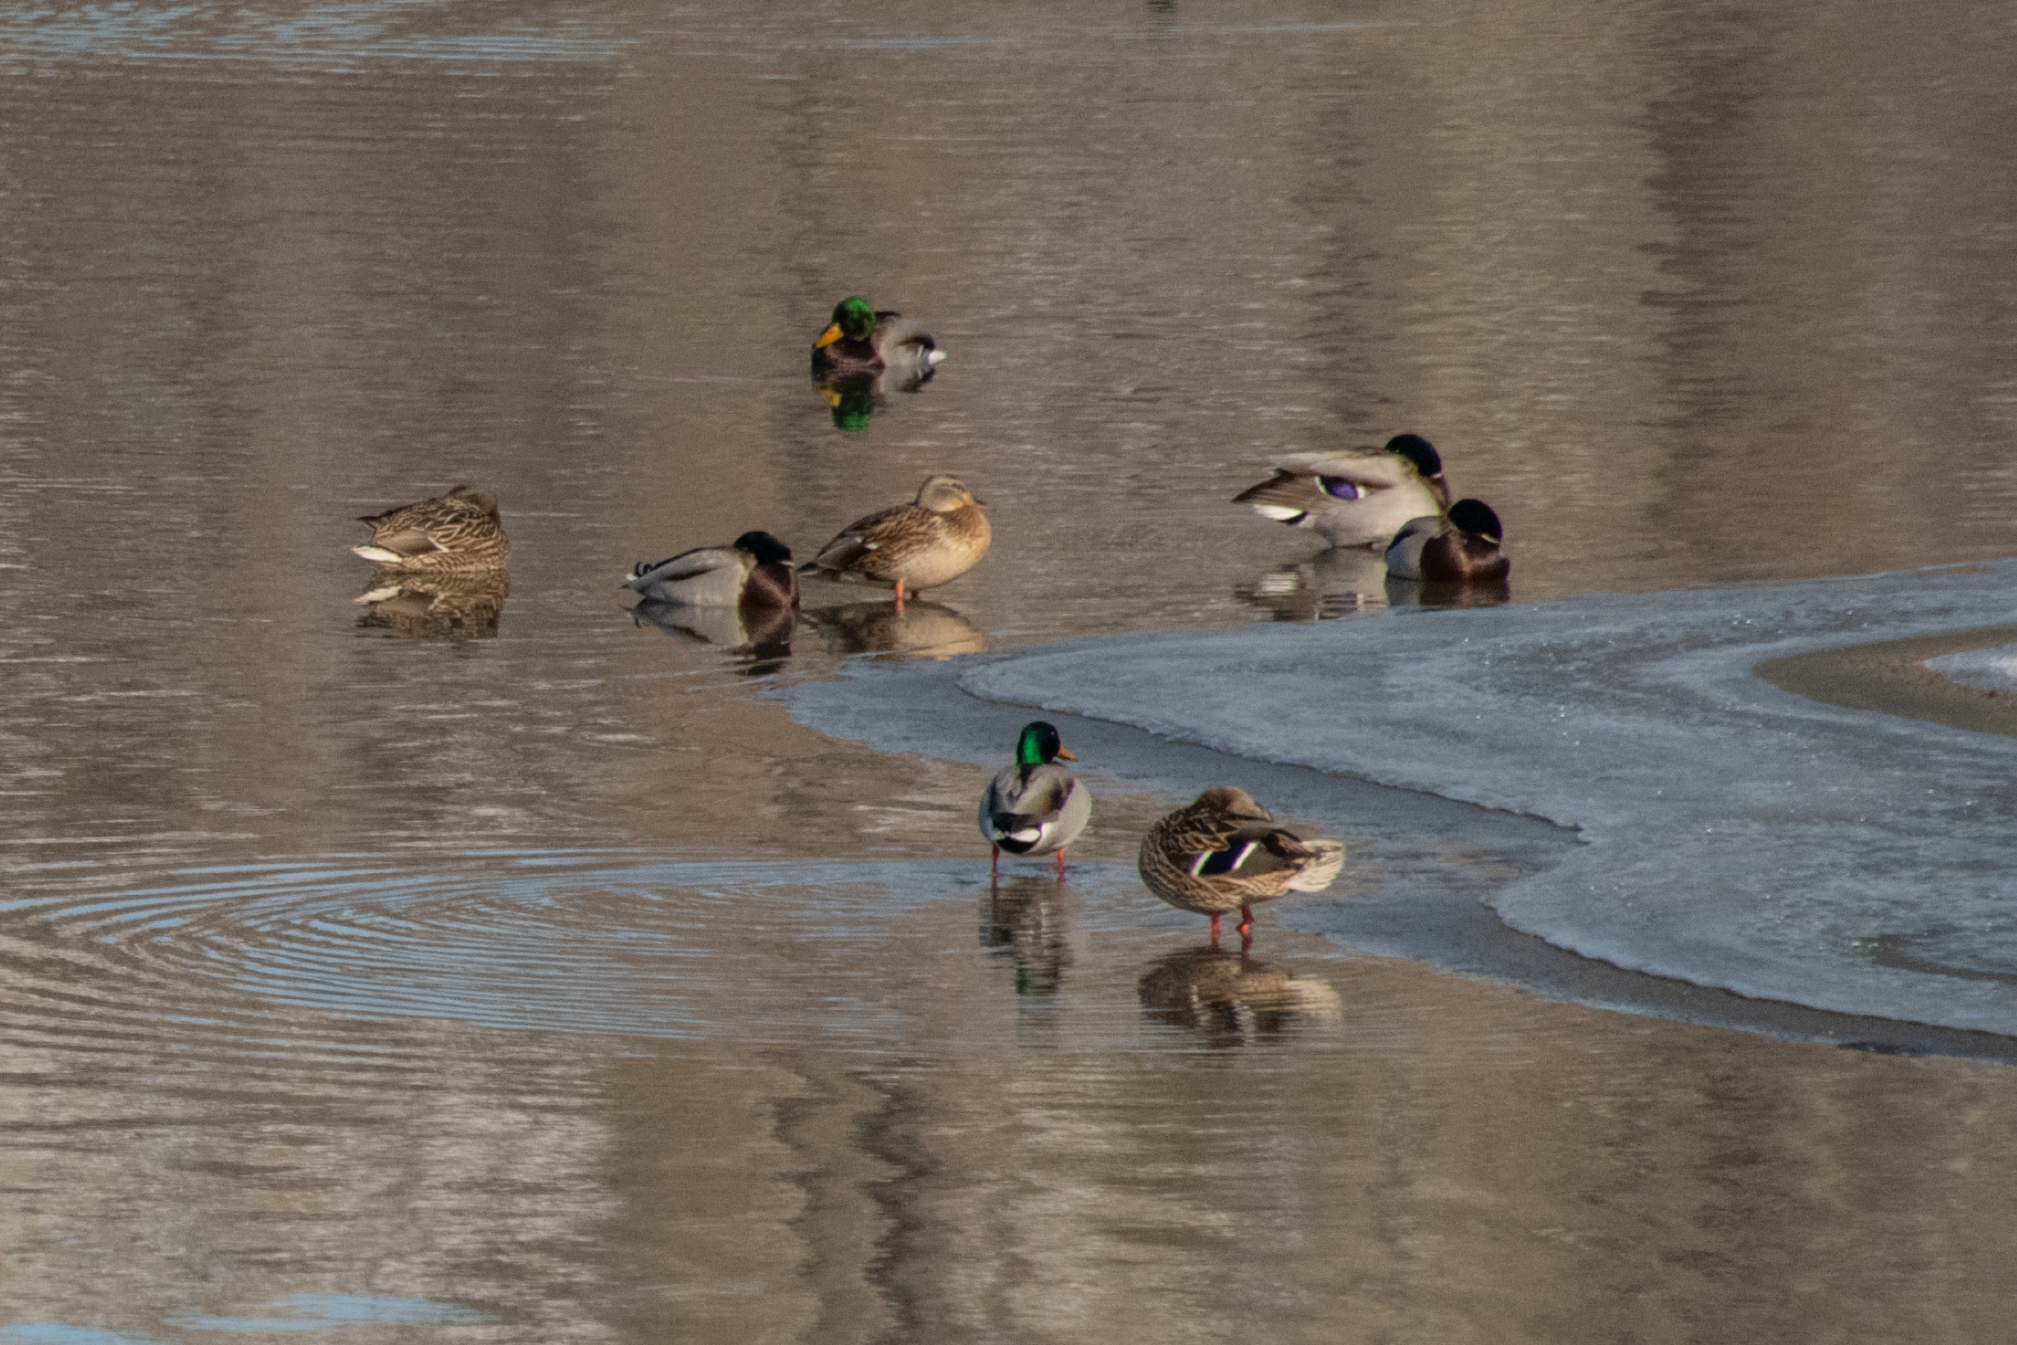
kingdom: Animalia
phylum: Chordata
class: Aves
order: Anseriformes
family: Anatidae
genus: Anas
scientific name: Anas platyrhynchos
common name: Mallard
